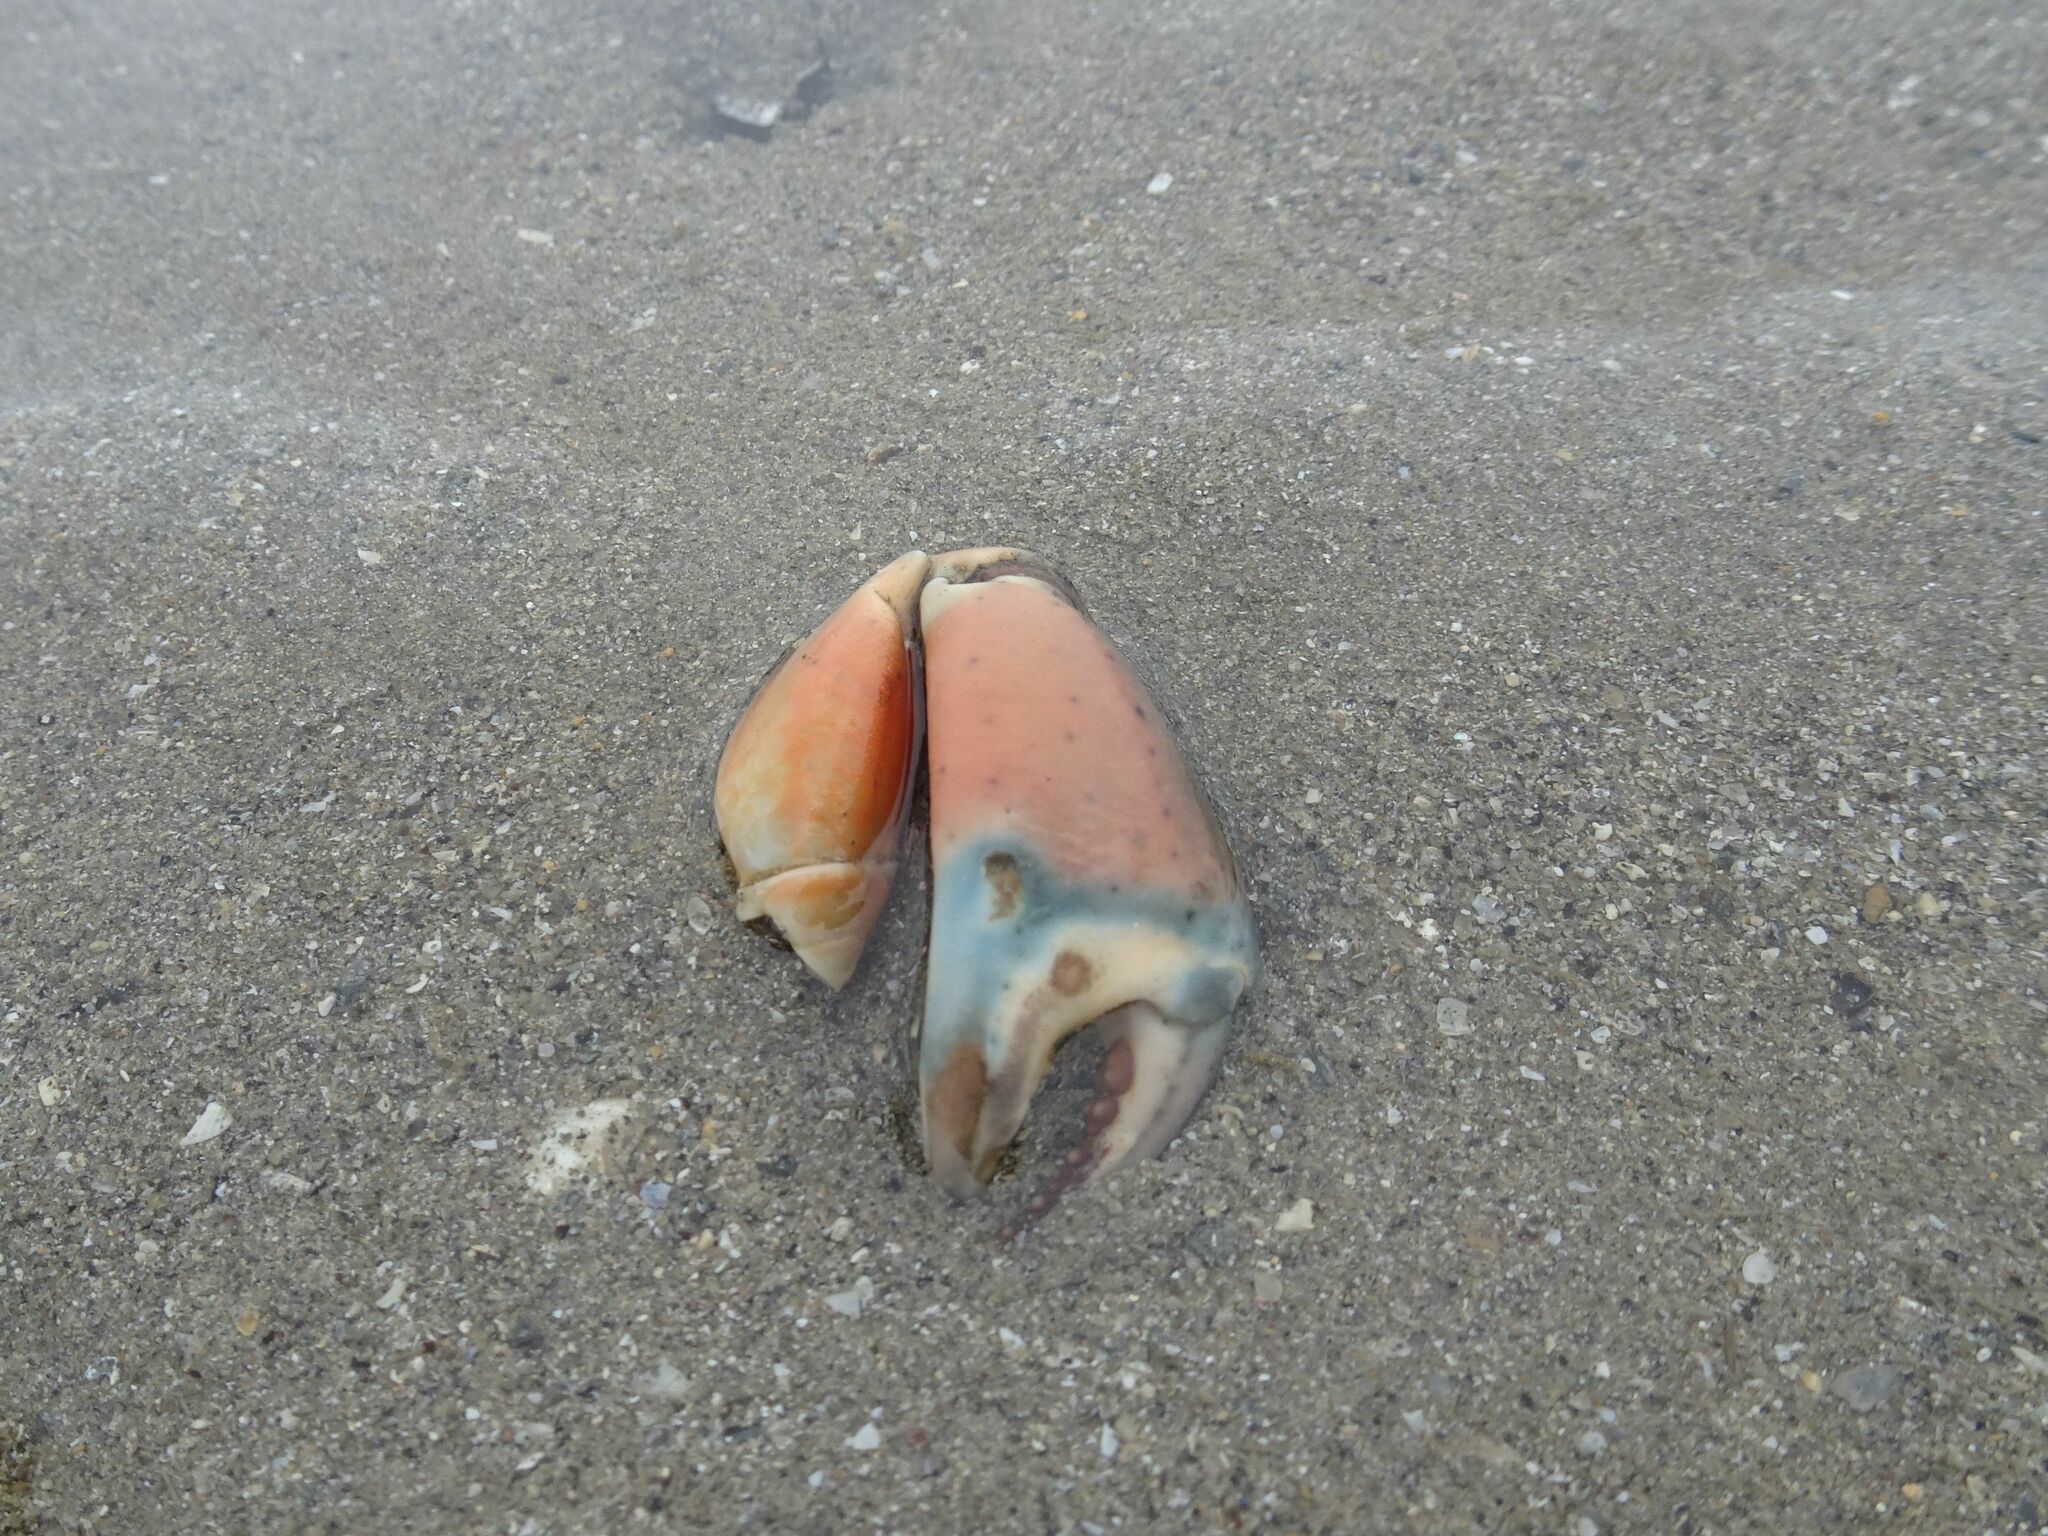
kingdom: Animalia
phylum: Arthropoda
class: Malacostraca
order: Decapoda
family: Carcinidae
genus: Carcinus
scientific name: Carcinus maenas
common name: European green crab
